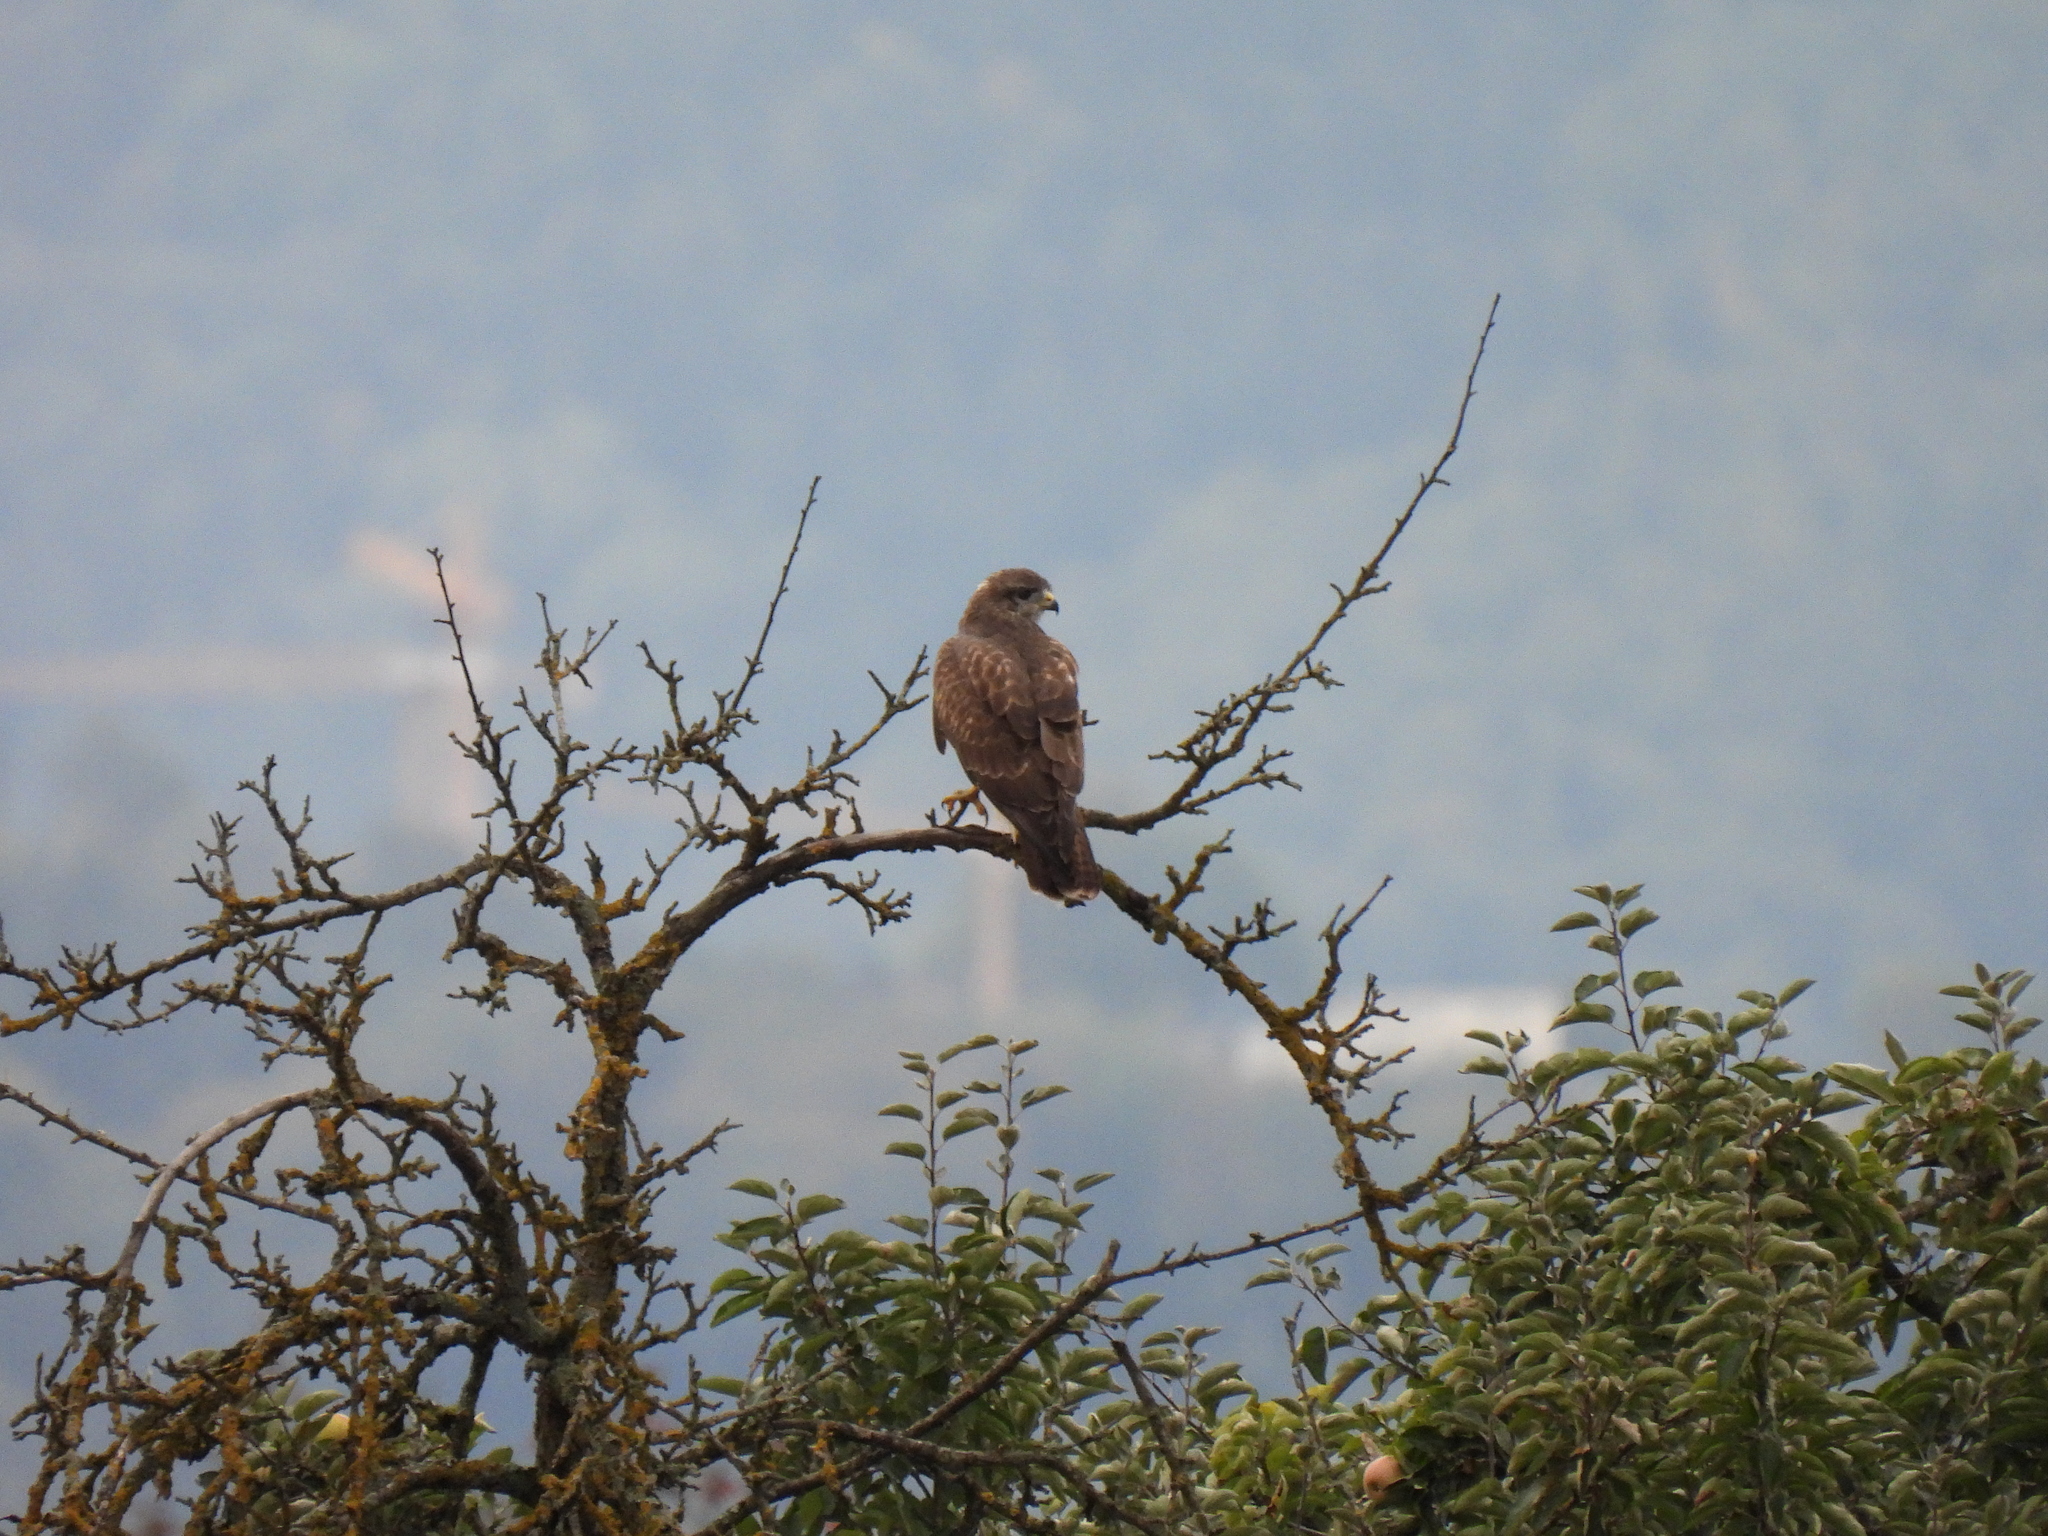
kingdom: Animalia
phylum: Chordata
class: Aves
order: Accipitriformes
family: Accipitridae
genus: Buteo
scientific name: Buteo buteo
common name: Common buzzard
